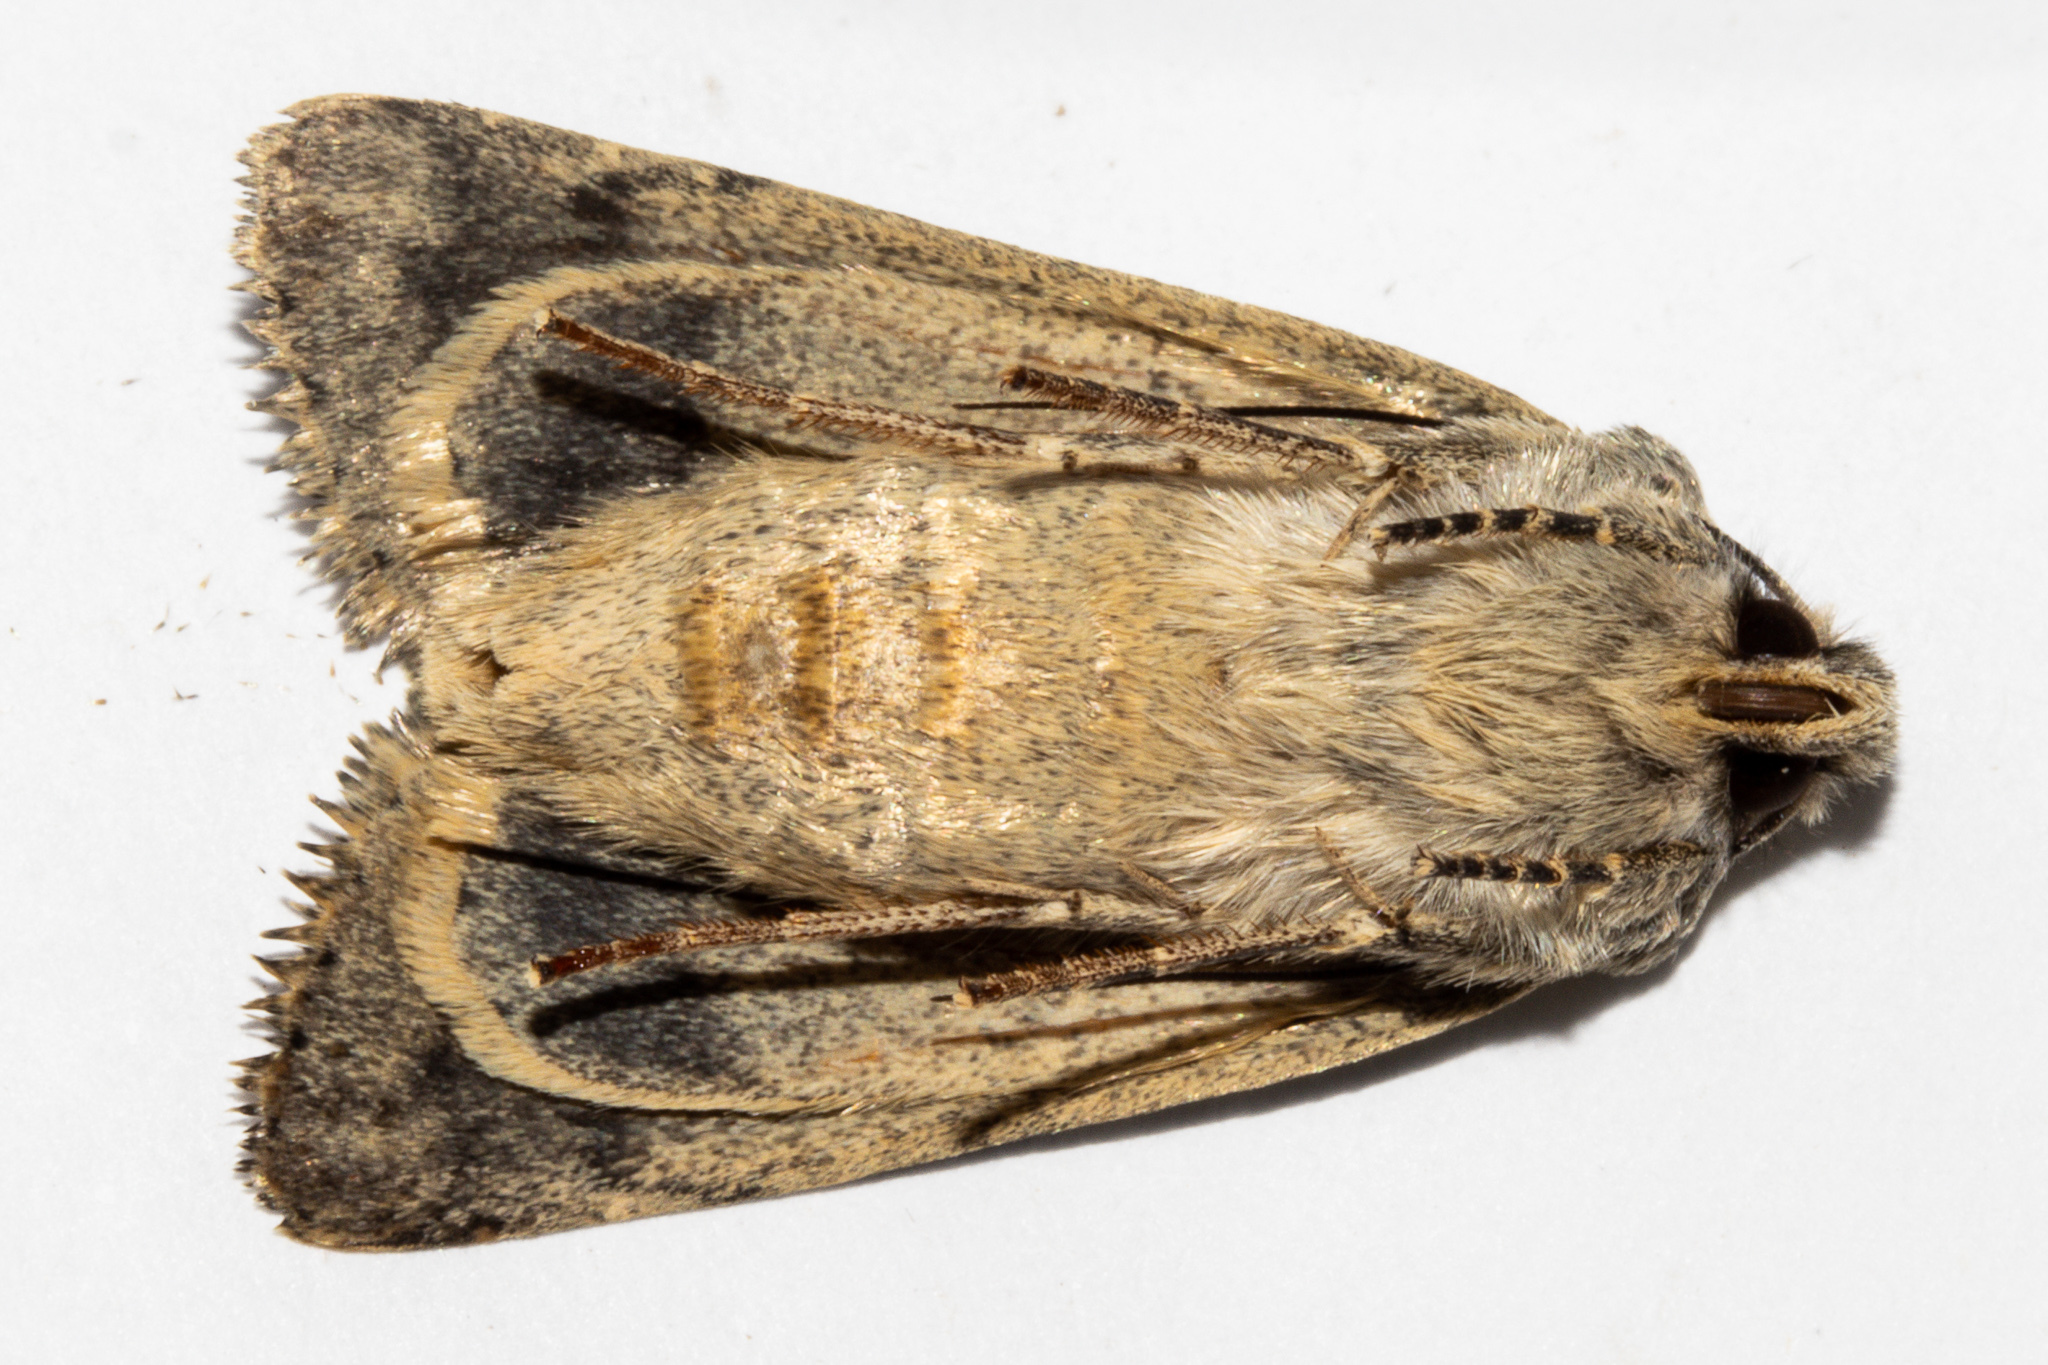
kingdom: Animalia
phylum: Arthropoda
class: Insecta
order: Lepidoptera
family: Noctuidae
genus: Ichneutica
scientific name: Ichneutica cuneata
